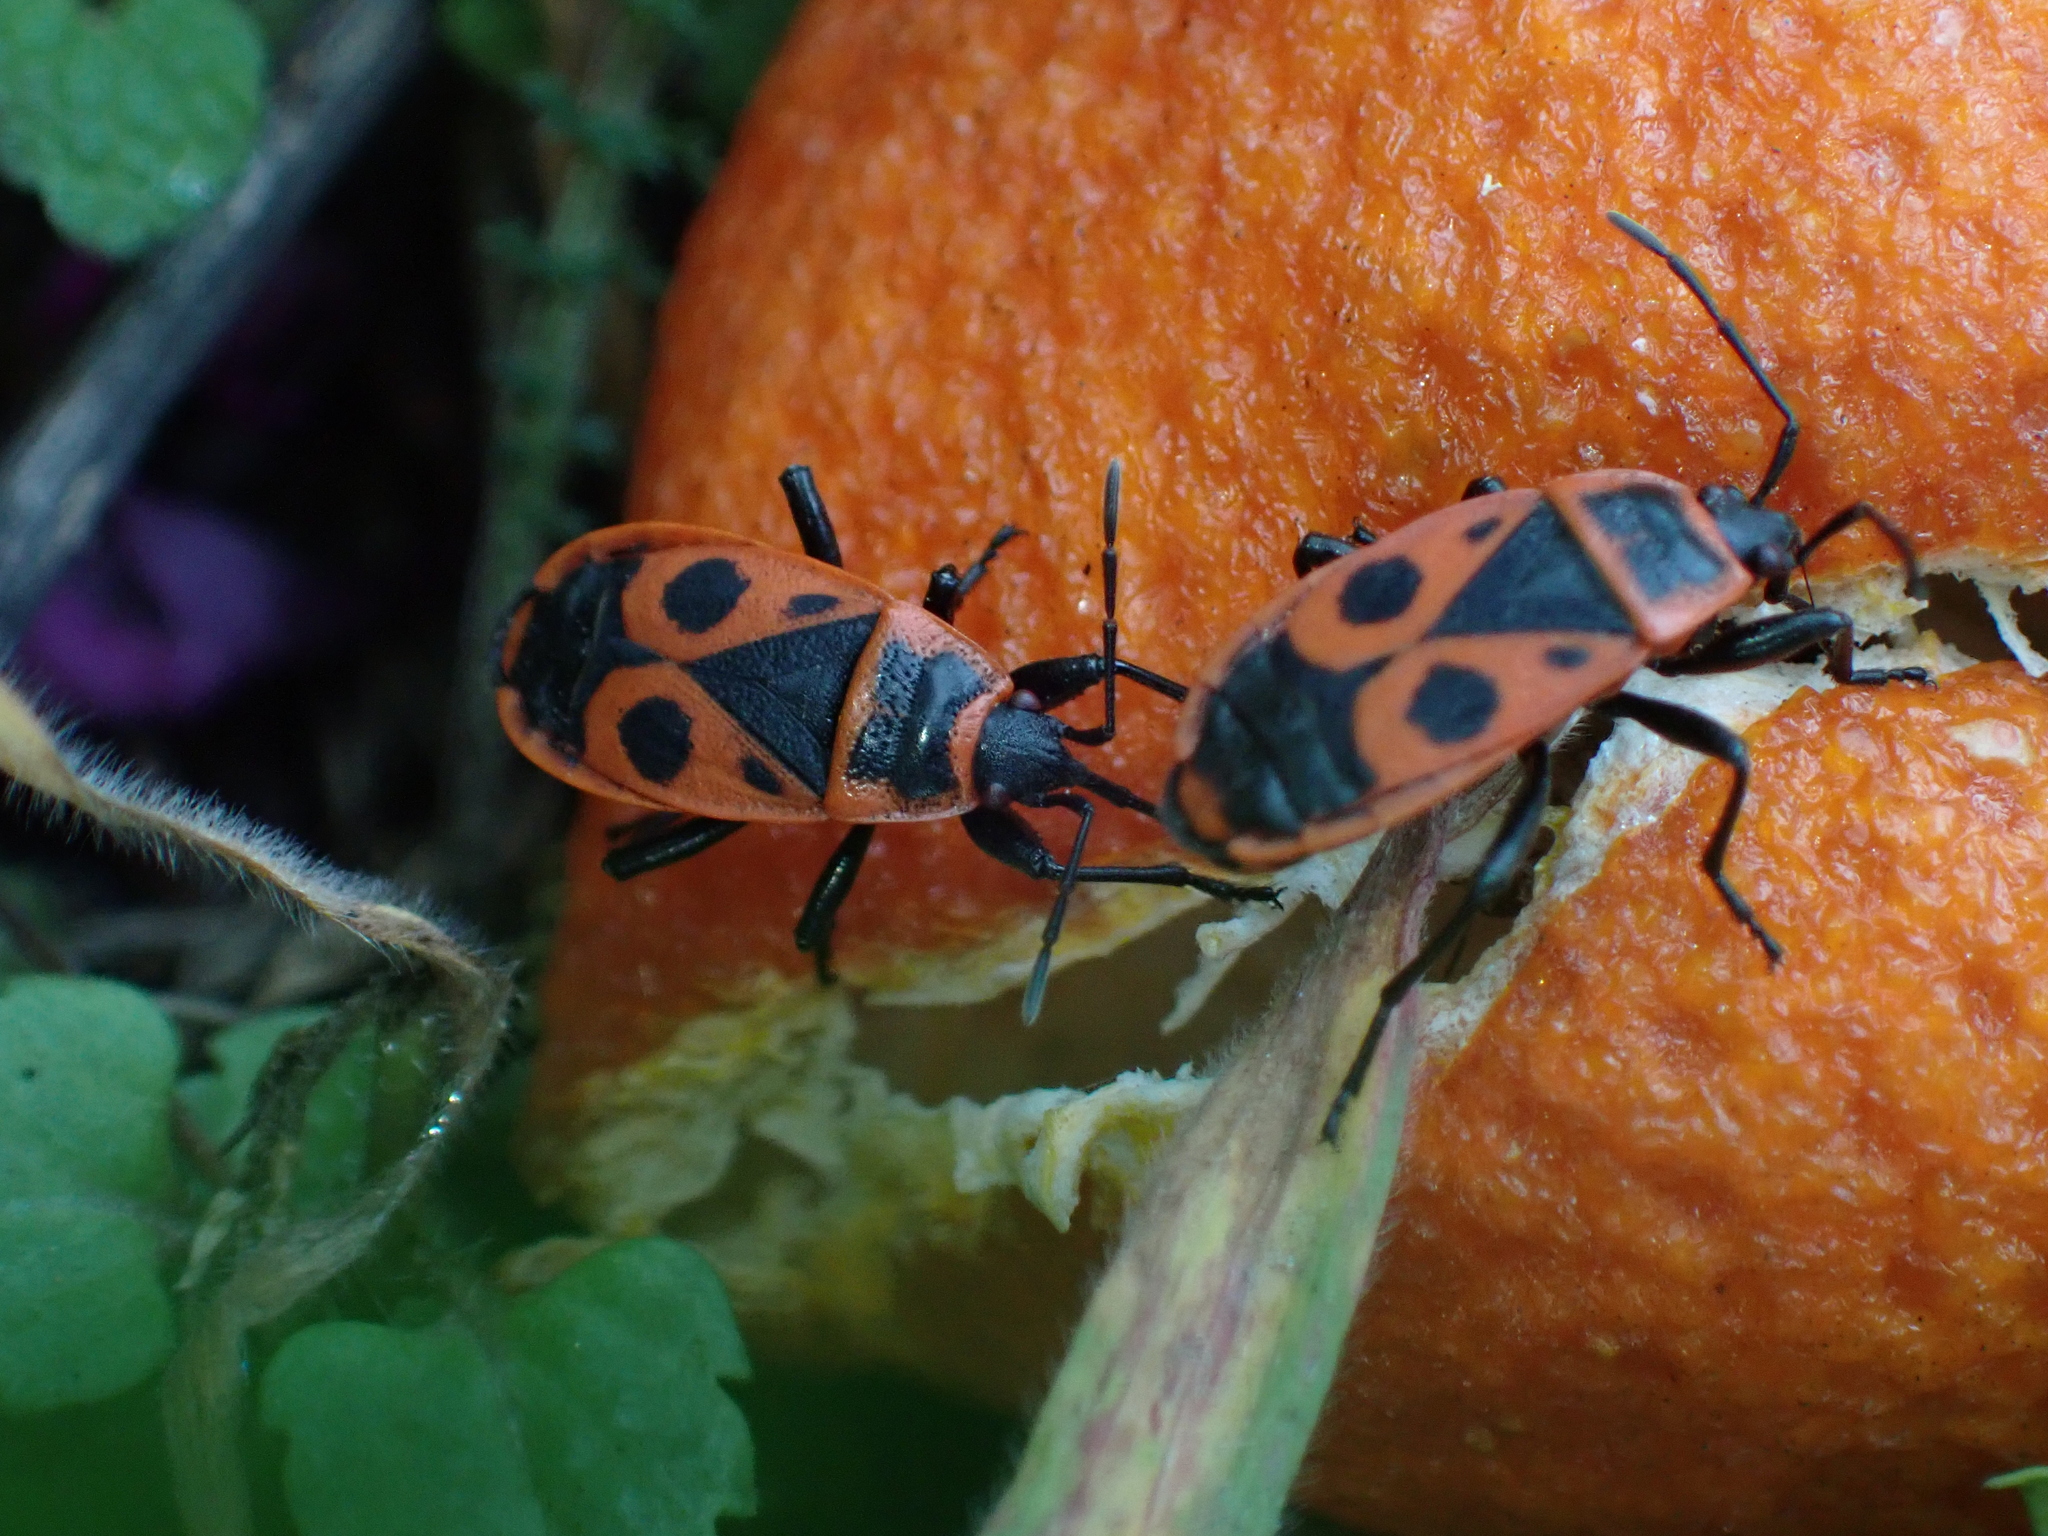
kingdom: Animalia
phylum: Arthropoda
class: Insecta
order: Hemiptera
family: Pyrrhocoridae
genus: Pyrrhocoris
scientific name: Pyrrhocoris apterus
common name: Firebug
